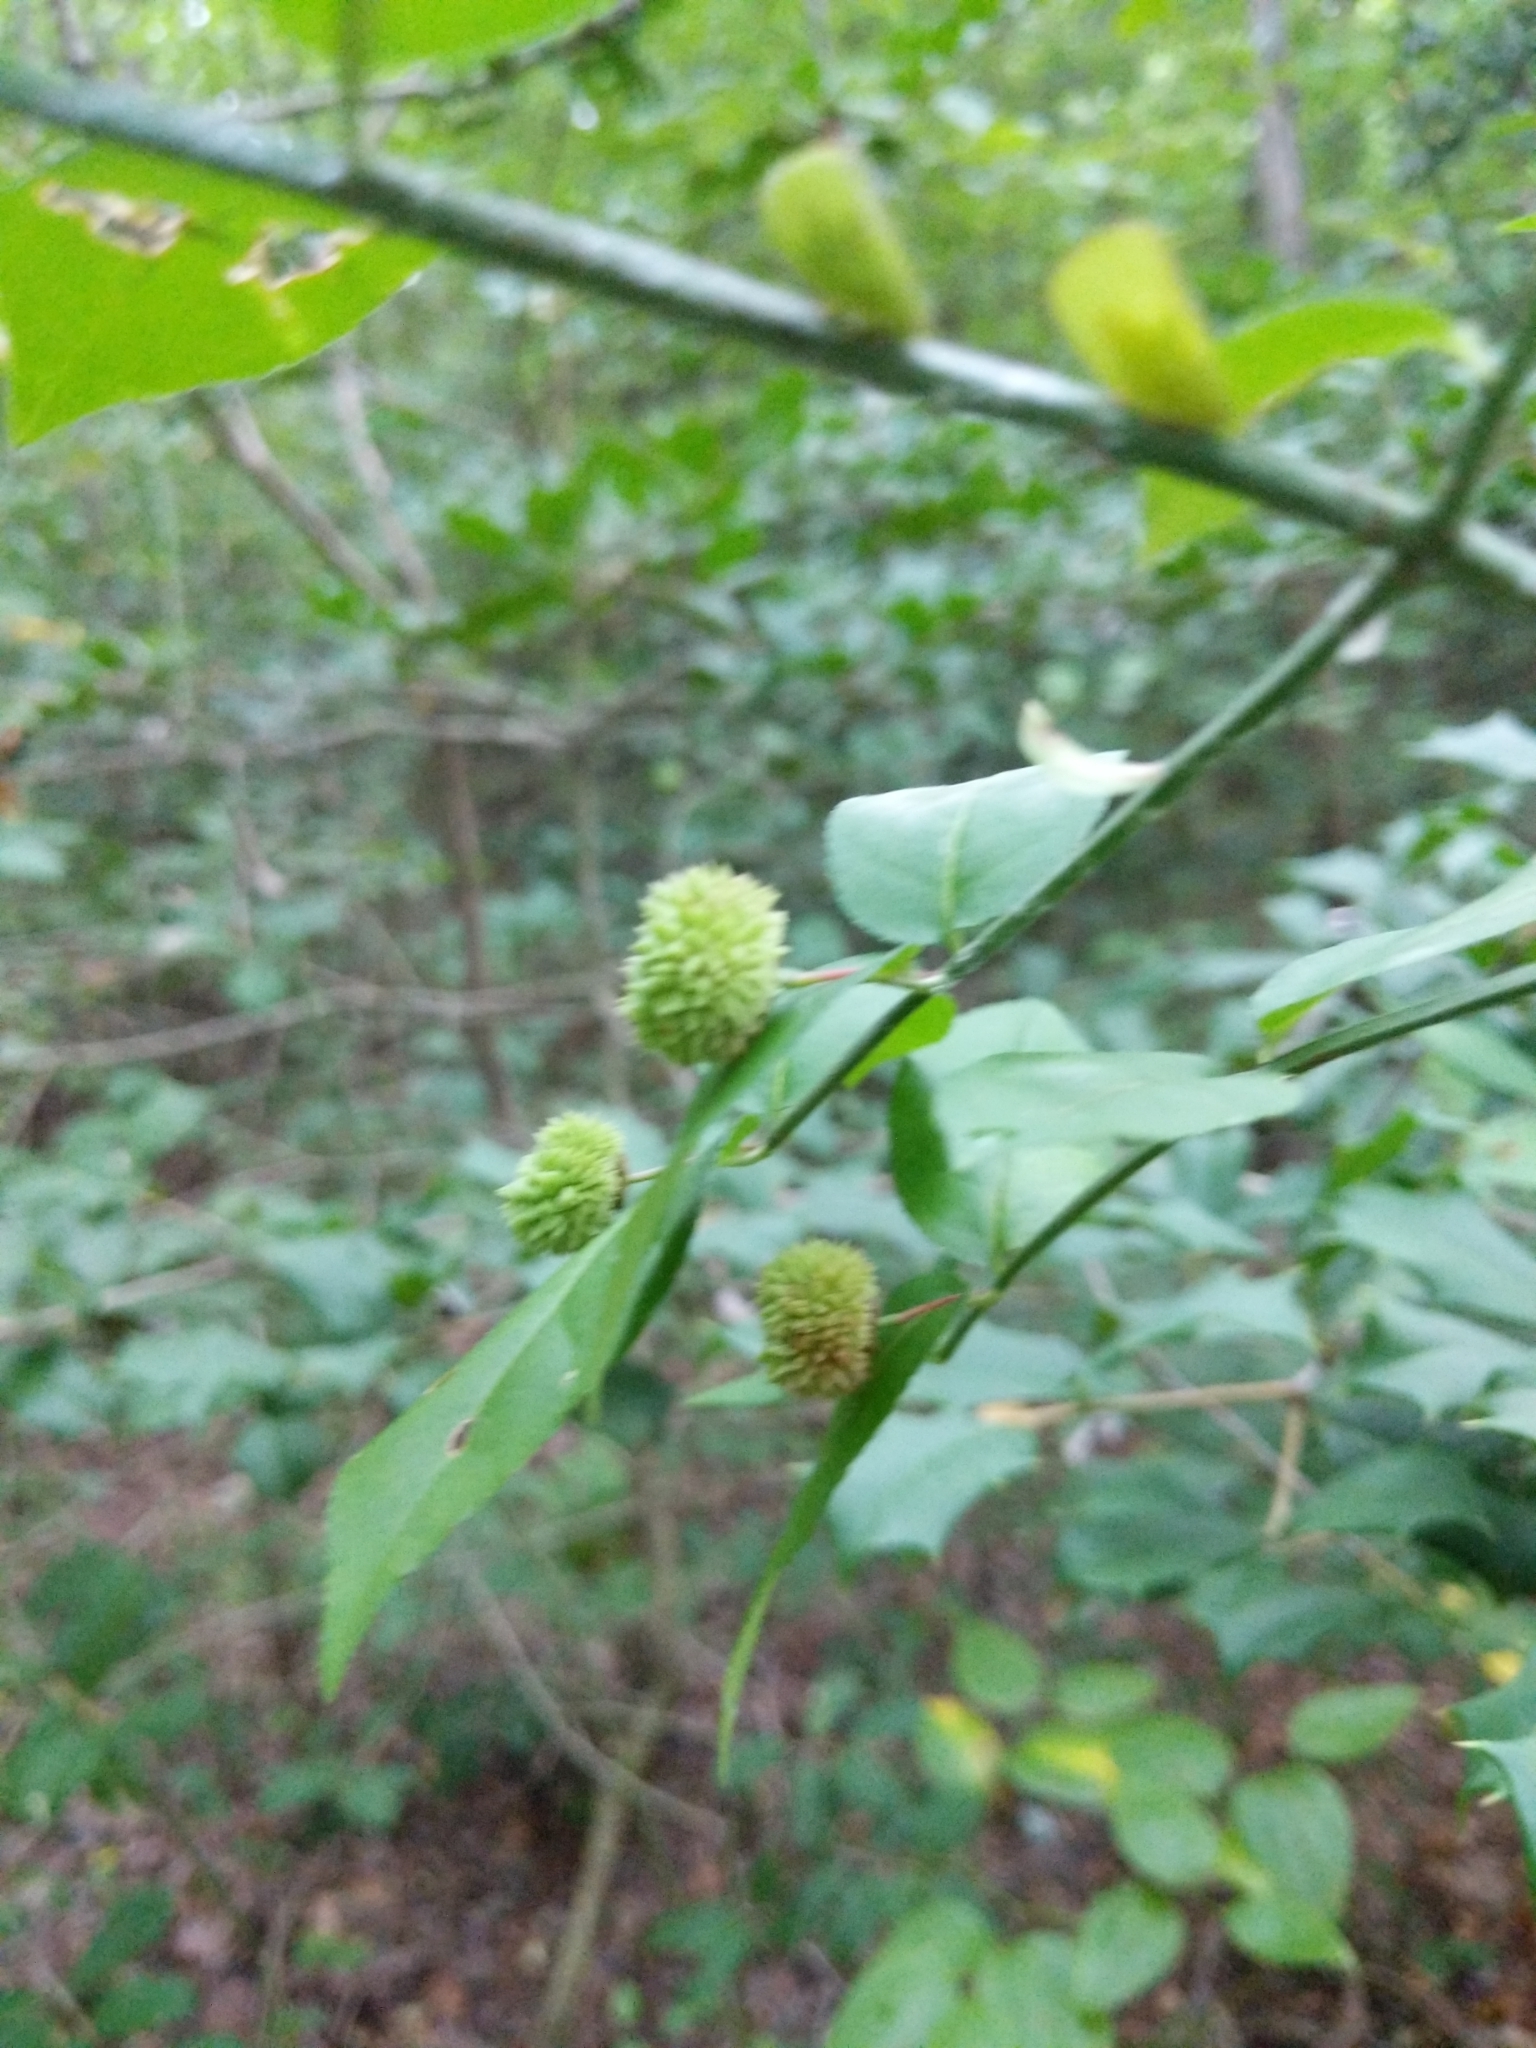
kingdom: Plantae
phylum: Tracheophyta
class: Magnoliopsida
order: Celastrales
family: Celastraceae
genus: Euonymus
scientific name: Euonymus americanus
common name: Bursting-heart
